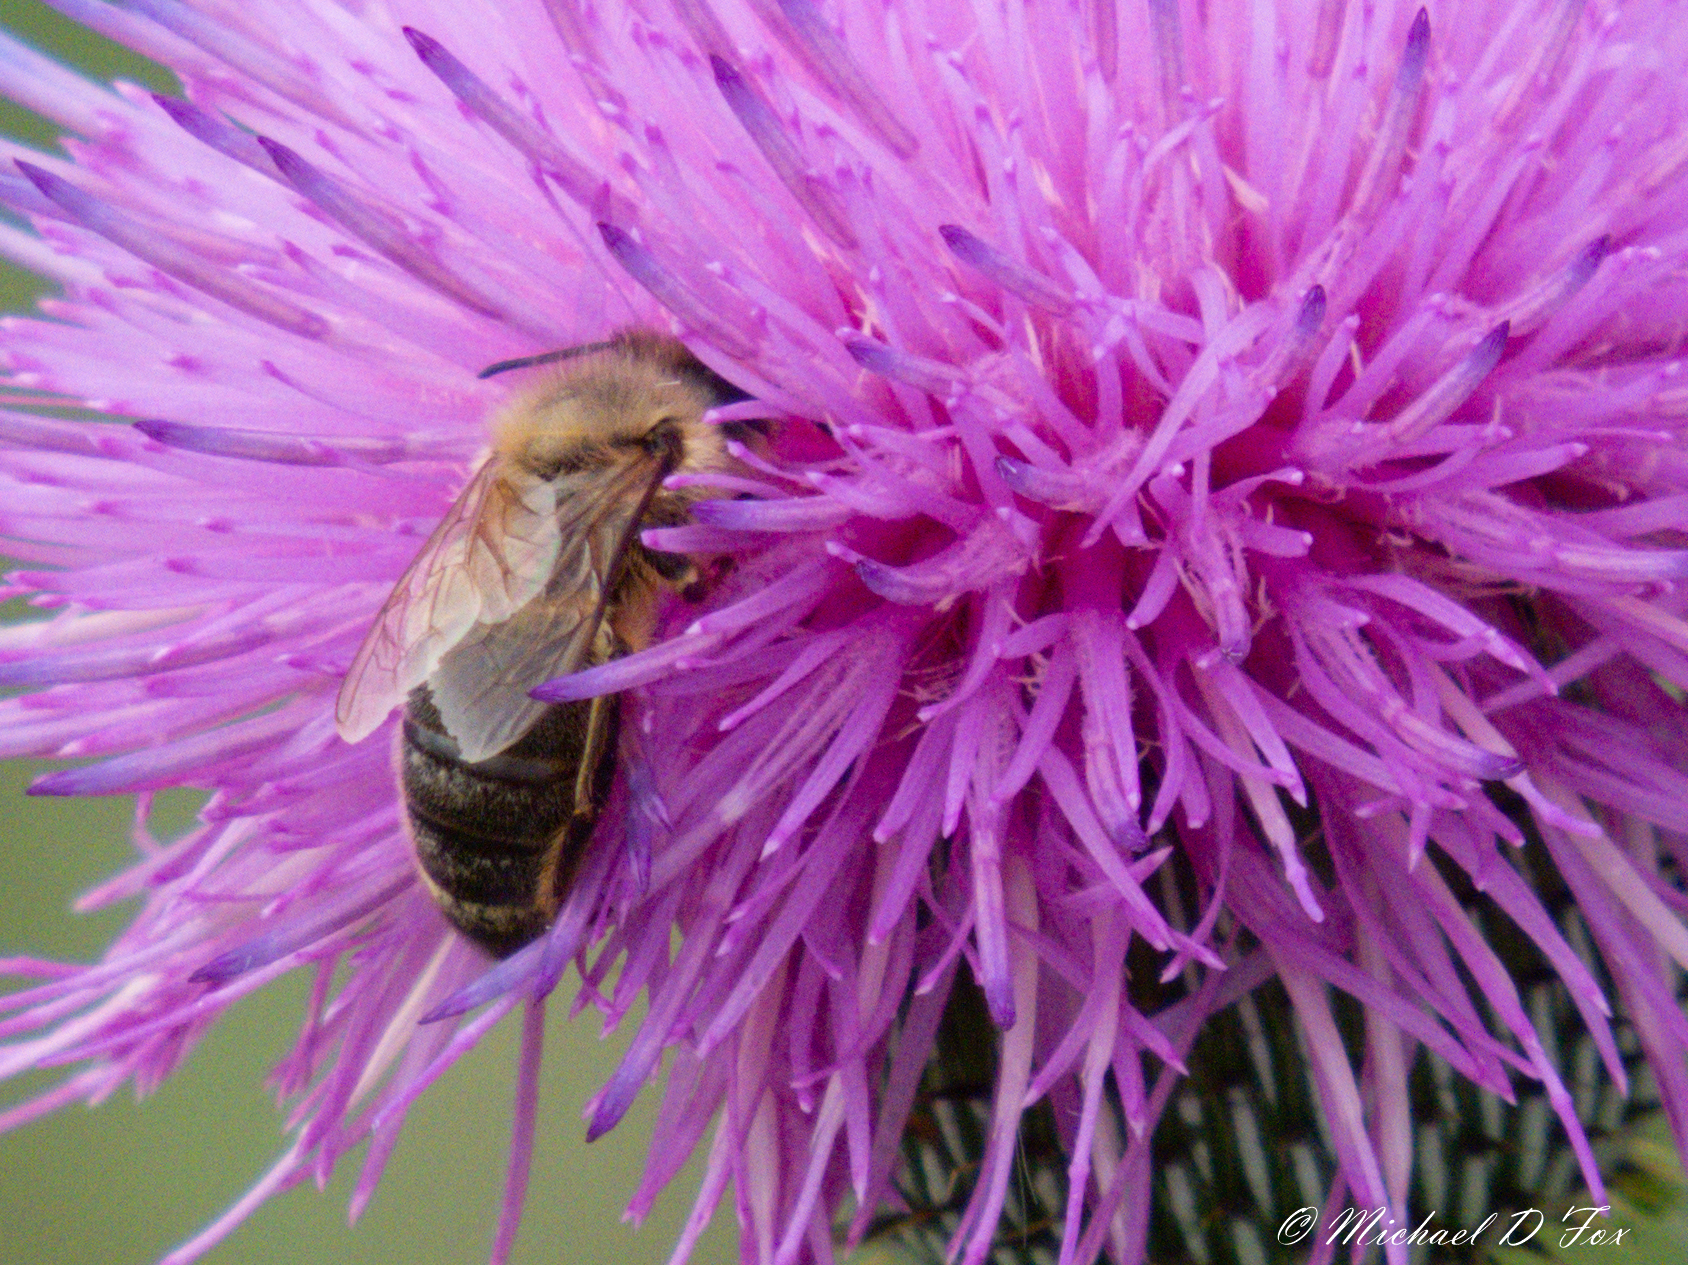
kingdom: Animalia
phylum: Arthropoda
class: Insecta
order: Hymenoptera
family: Apidae
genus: Apis
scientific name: Apis mellifera
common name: Honey bee
